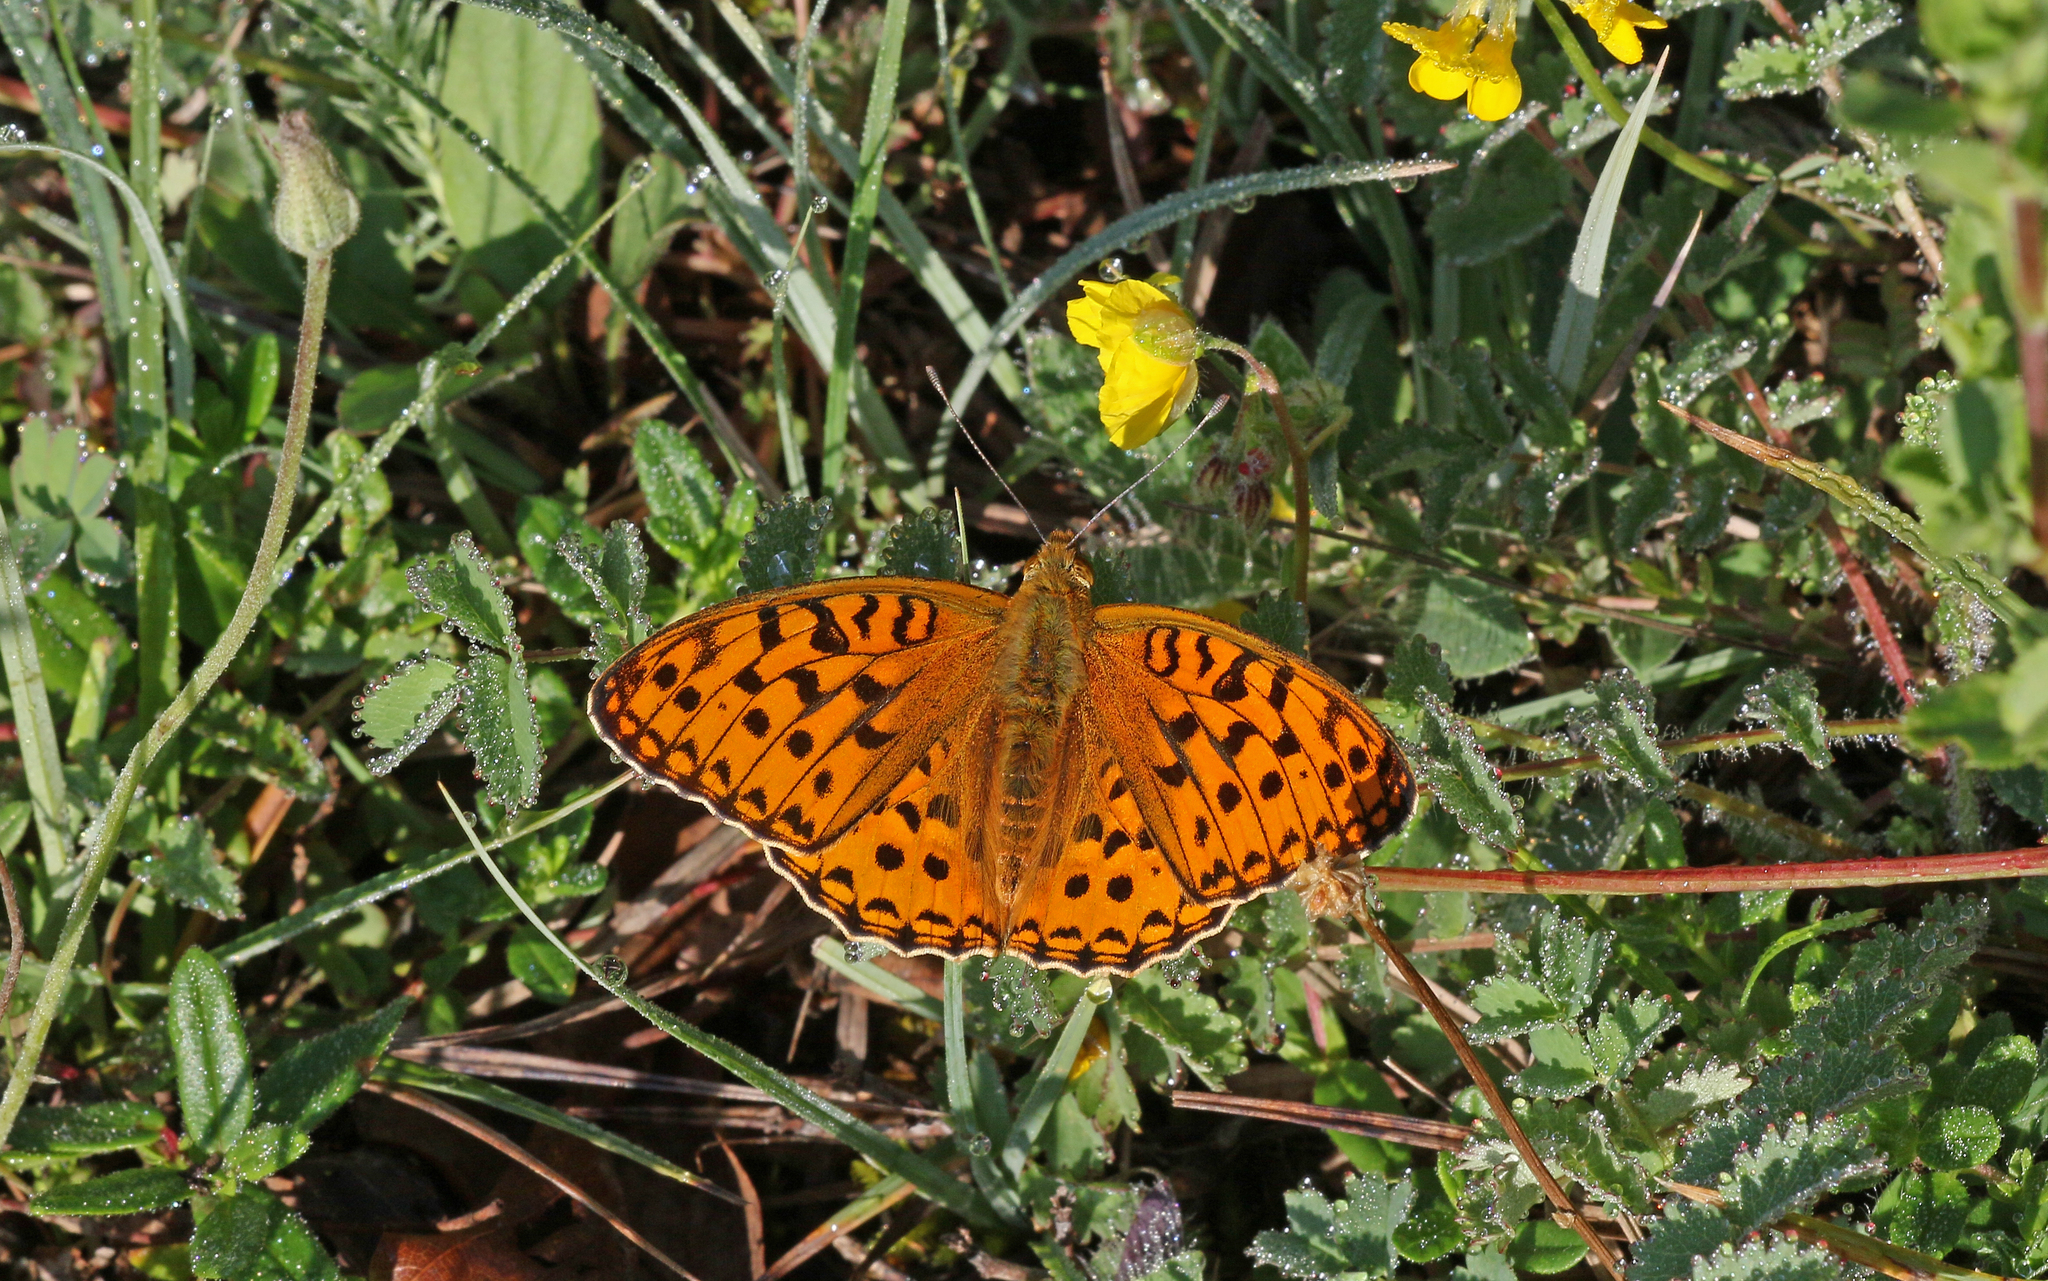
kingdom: Animalia
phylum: Arthropoda
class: Insecta
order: Lepidoptera
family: Nymphalidae
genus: Fabriciana
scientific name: Fabriciana adippe
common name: High brown fritillary
